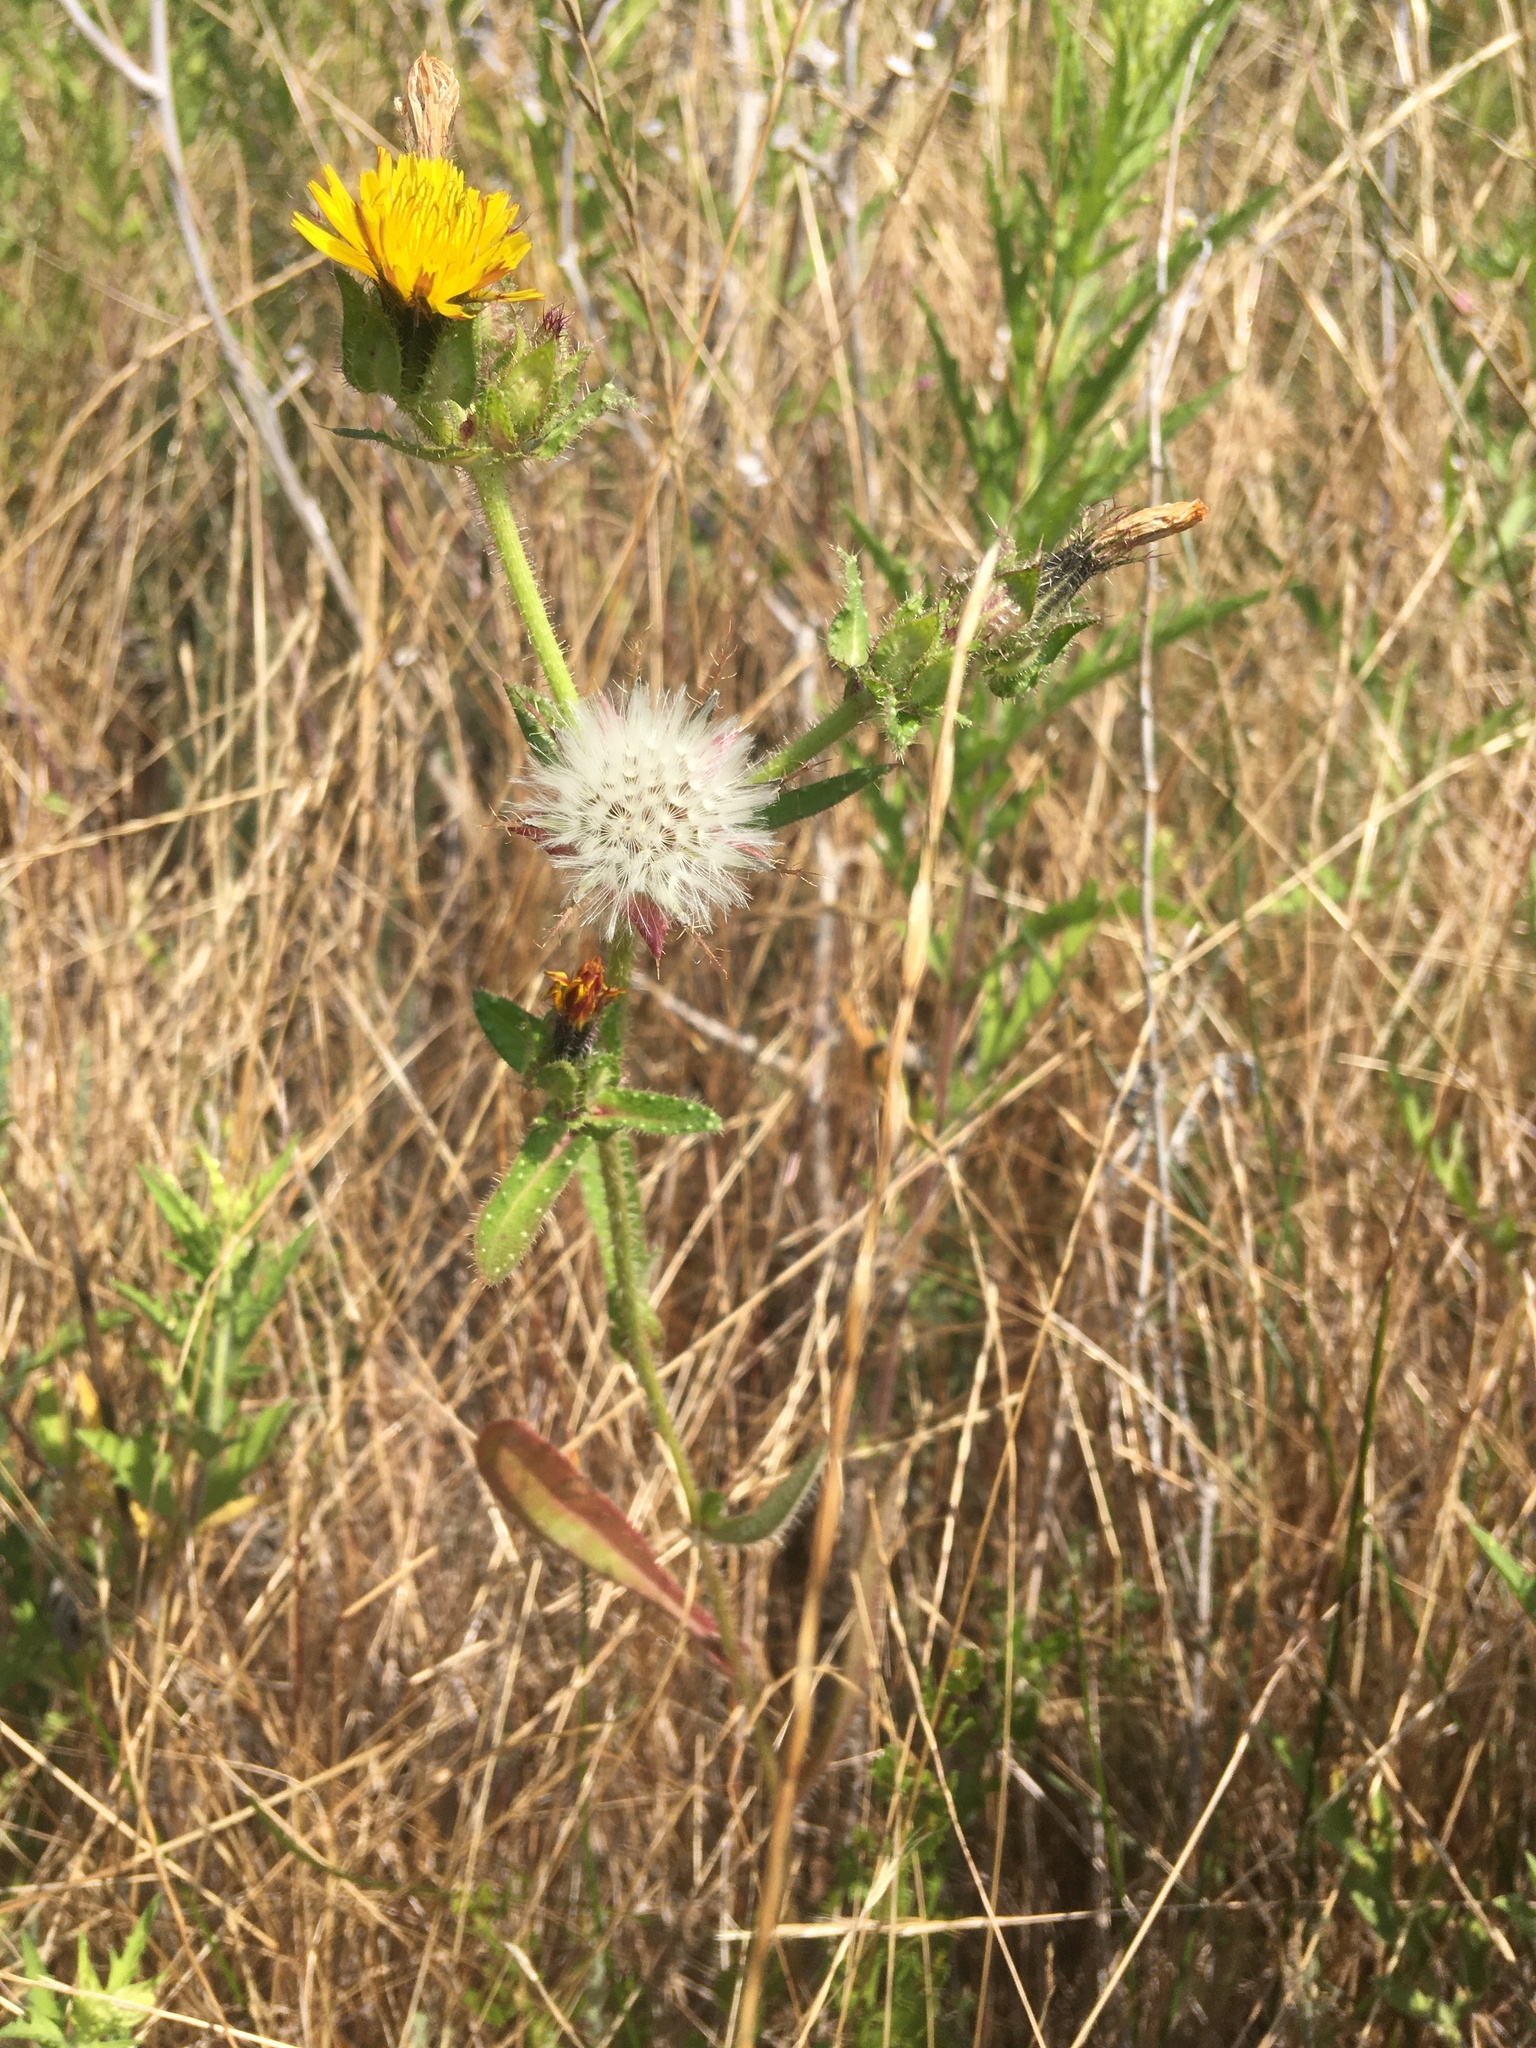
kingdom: Plantae
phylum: Tracheophyta
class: Magnoliopsida
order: Asterales
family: Asteraceae
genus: Helminthotheca
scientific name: Helminthotheca echioides
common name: Ox-tongue
